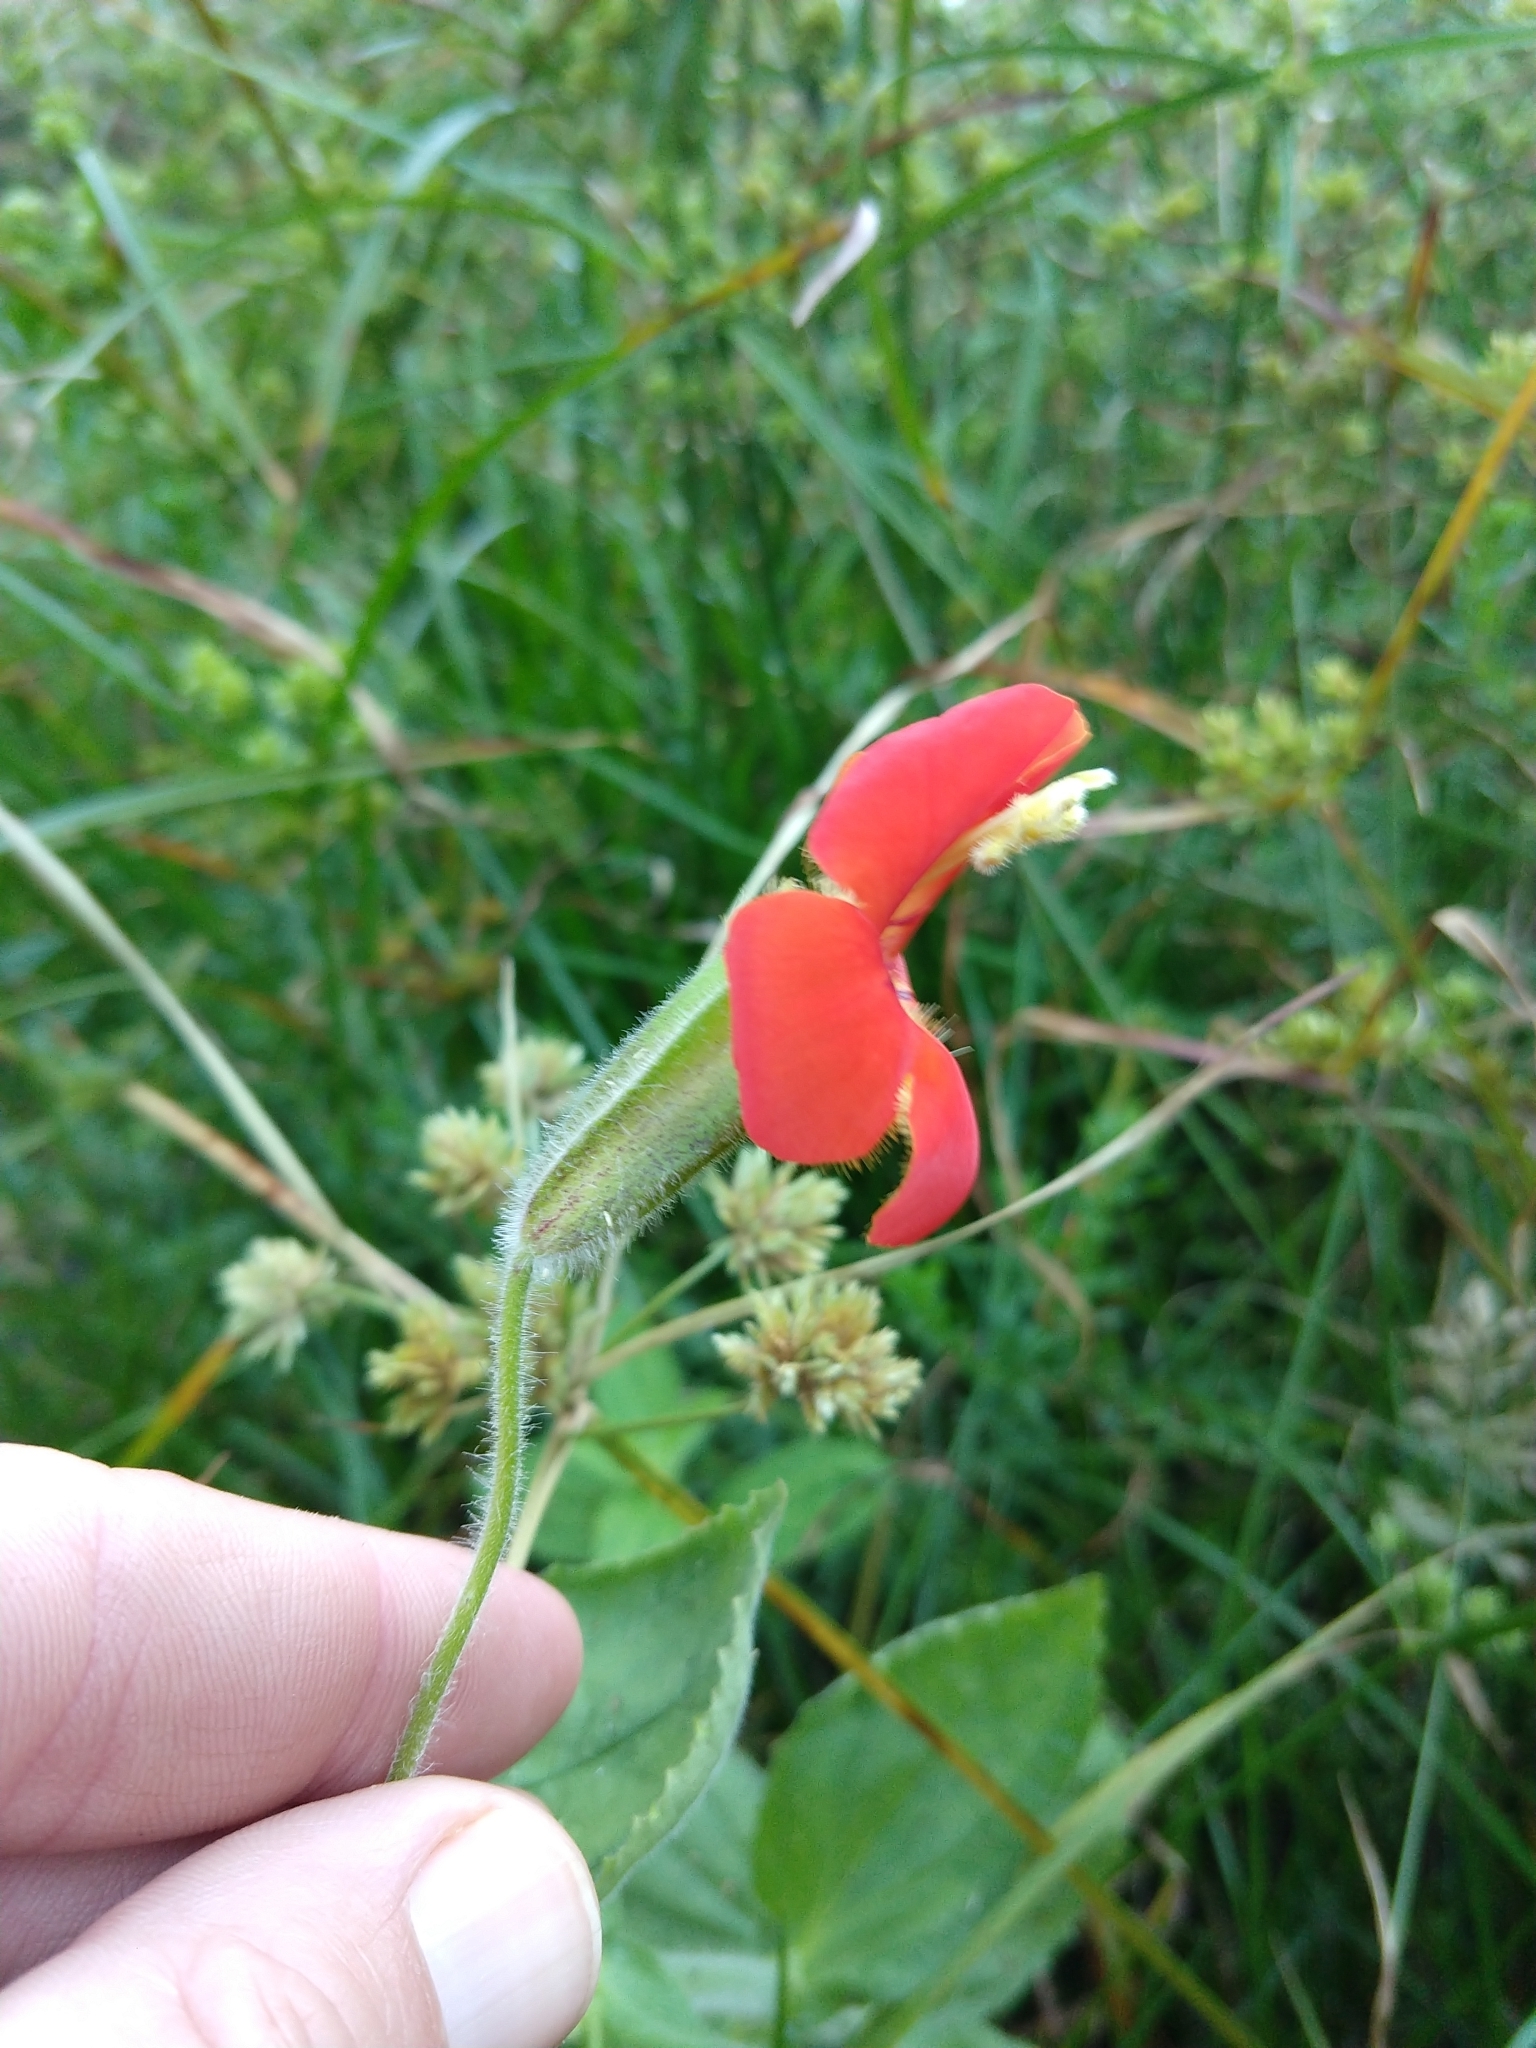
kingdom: Plantae
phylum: Tracheophyta
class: Magnoliopsida
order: Lamiales
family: Phrymaceae
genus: Erythranthe
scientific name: Erythranthe cardinalis
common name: Scarlet monkey-flower
